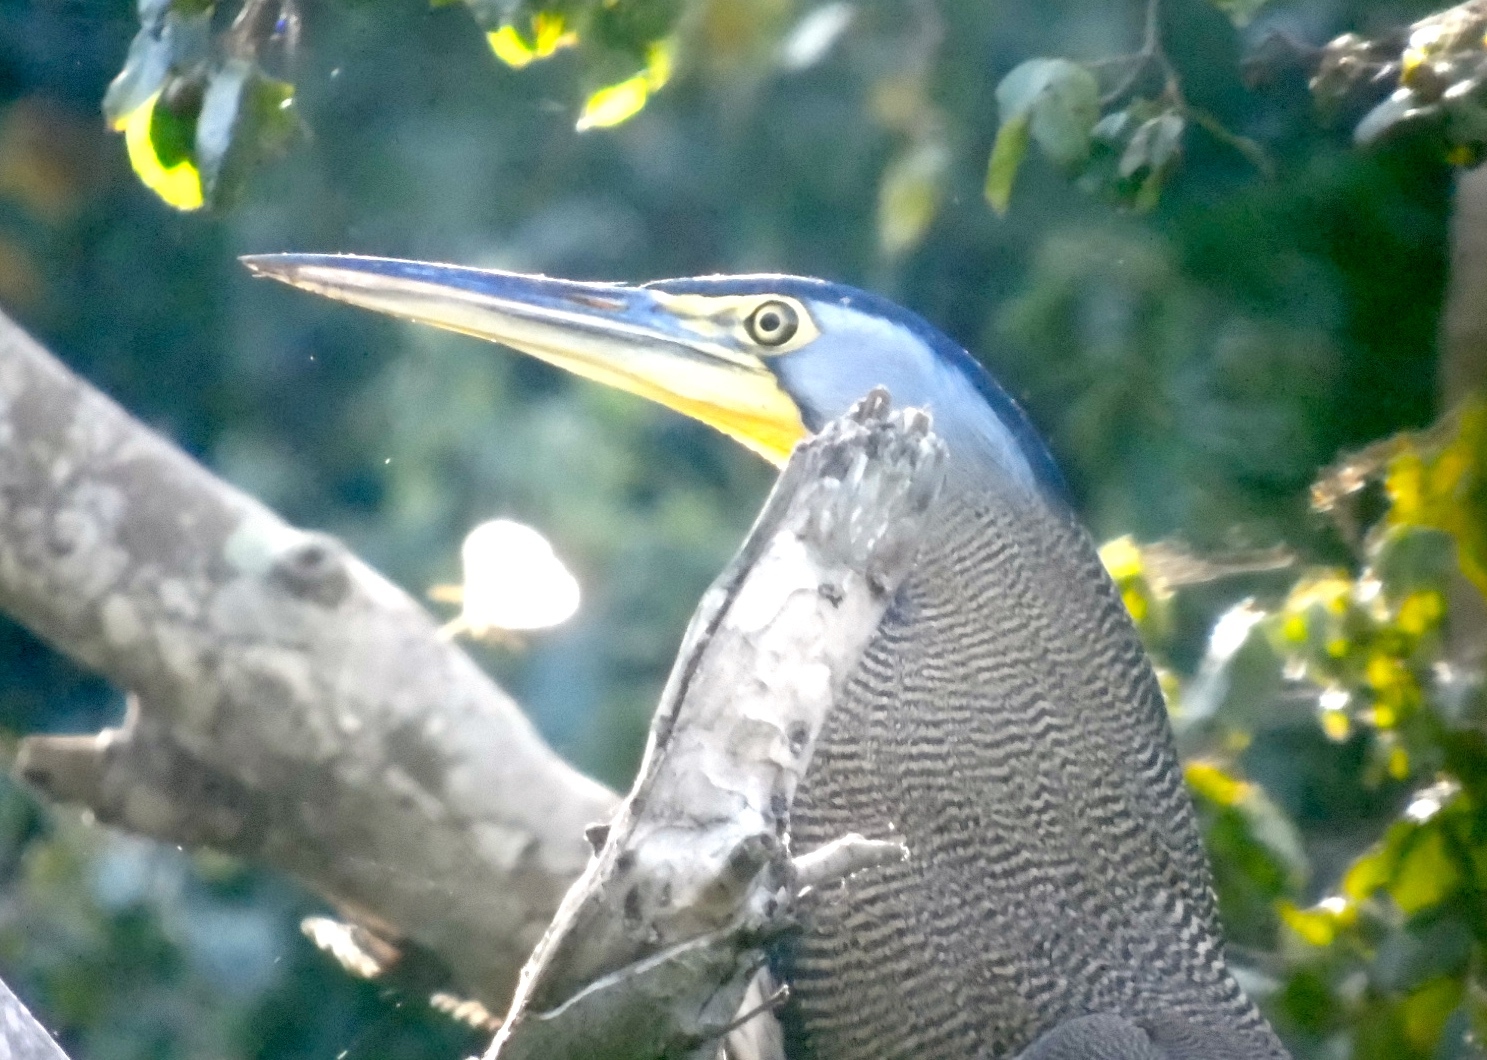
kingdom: Animalia
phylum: Chordata
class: Aves
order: Pelecaniformes
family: Ardeidae
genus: Tigrisoma
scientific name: Tigrisoma mexicanum
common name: Bare-throated tiger-heron
